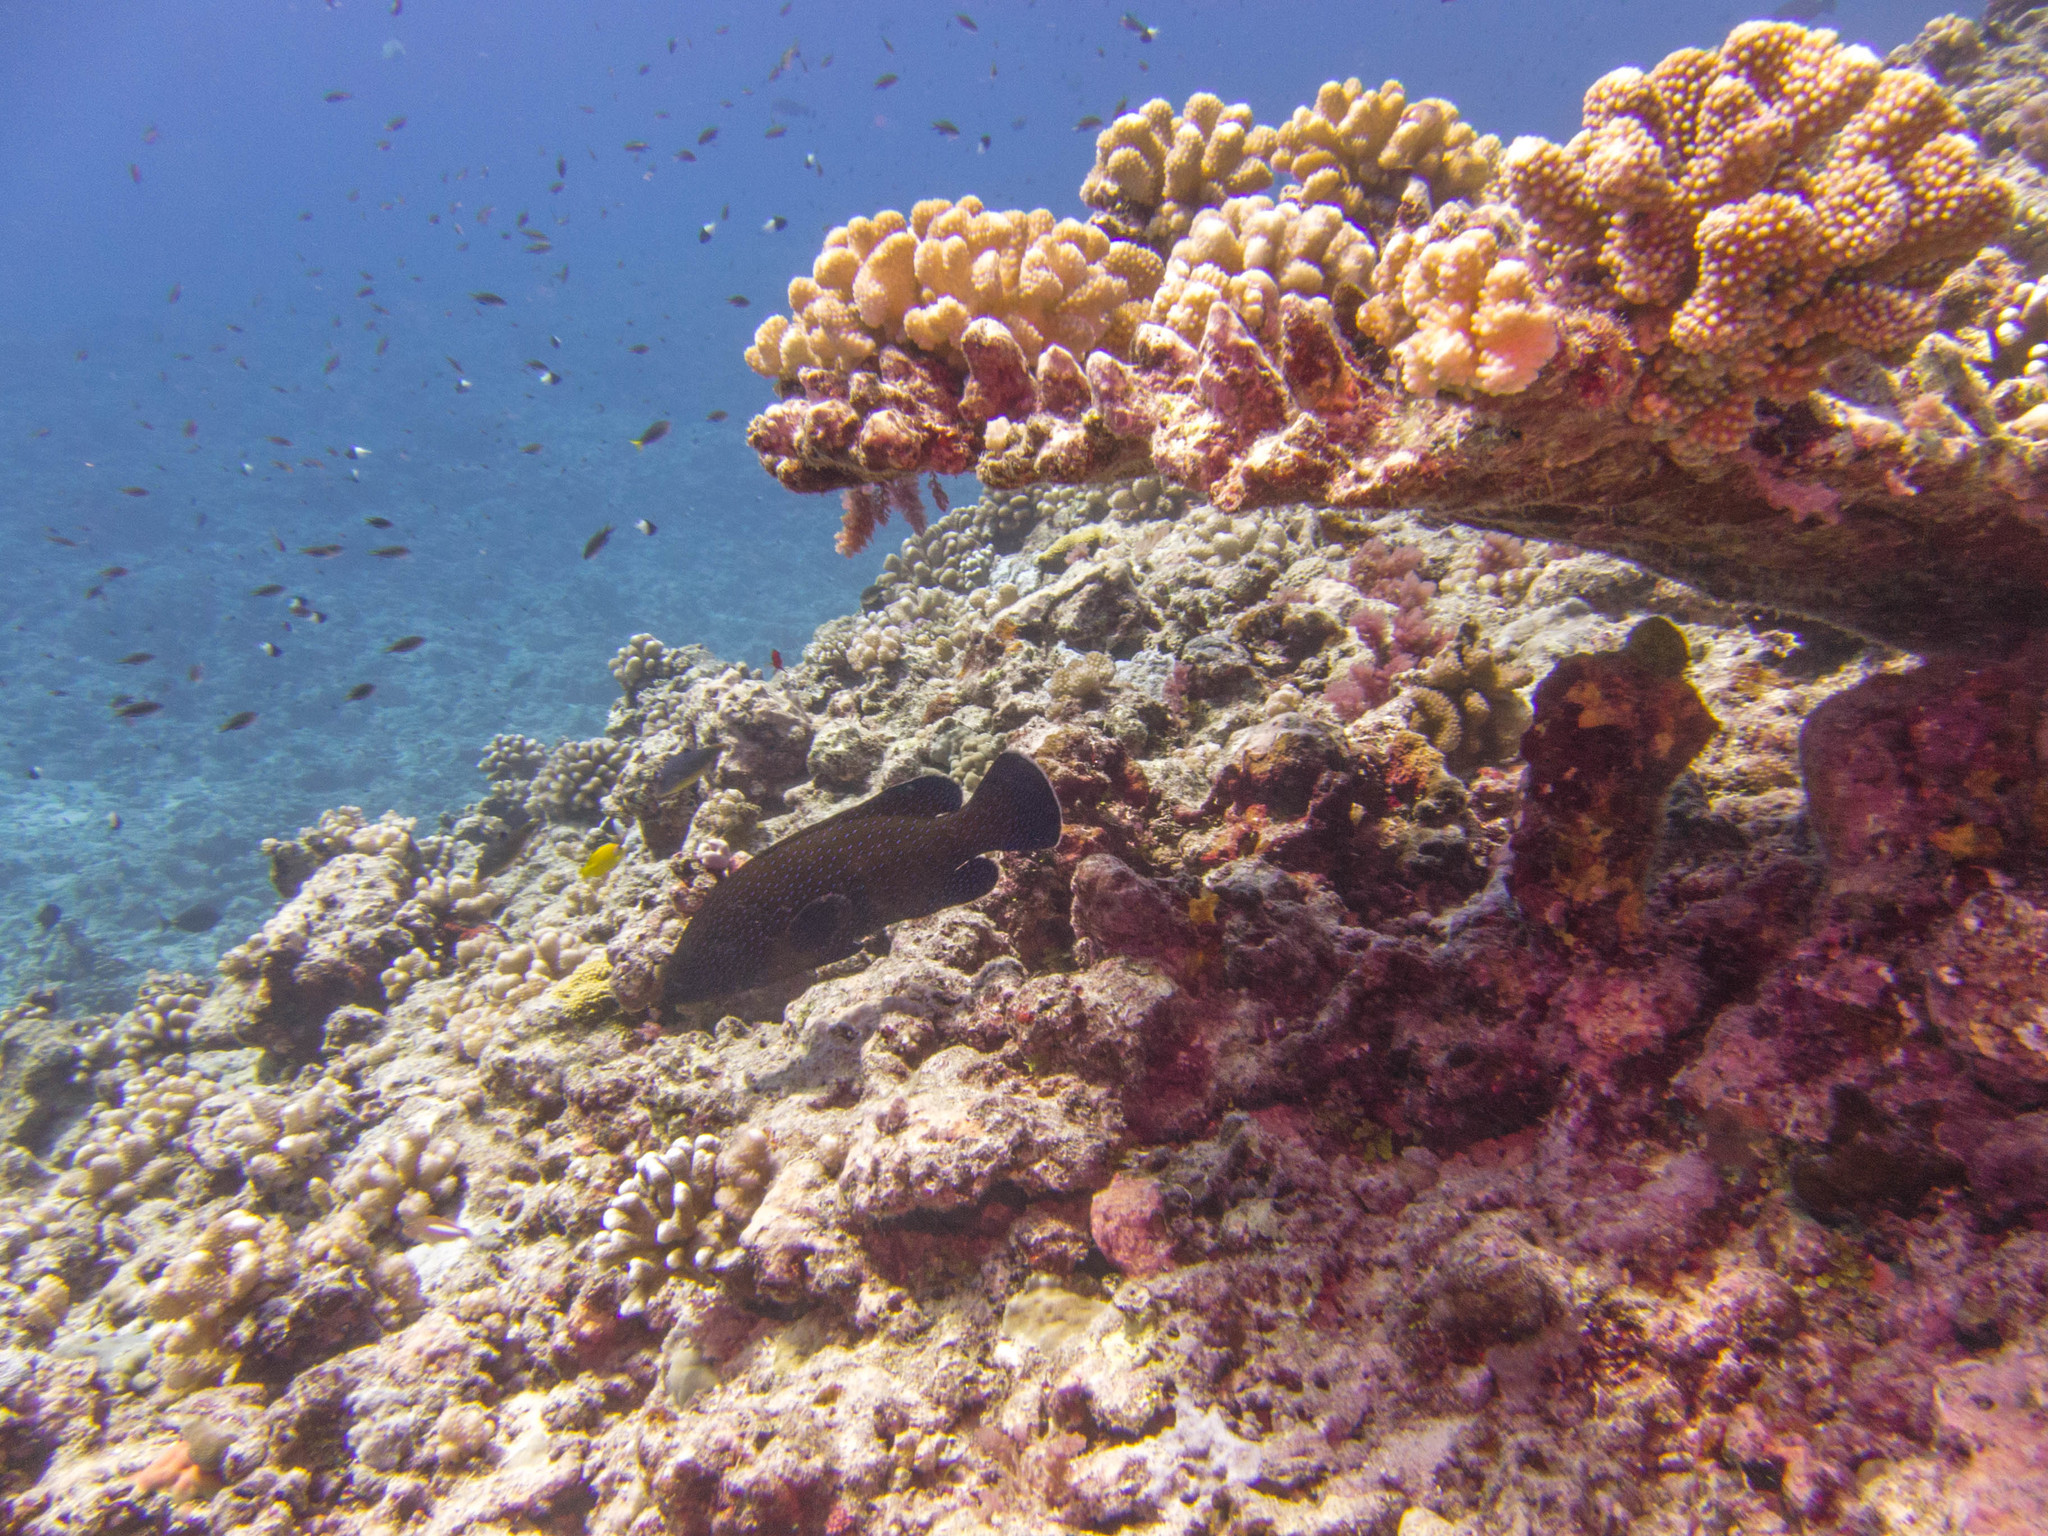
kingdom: Animalia
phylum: Chordata
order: Perciformes
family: Serranidae
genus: Cephalopholis
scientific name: Cephalopholis argus
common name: Peacock grouper
